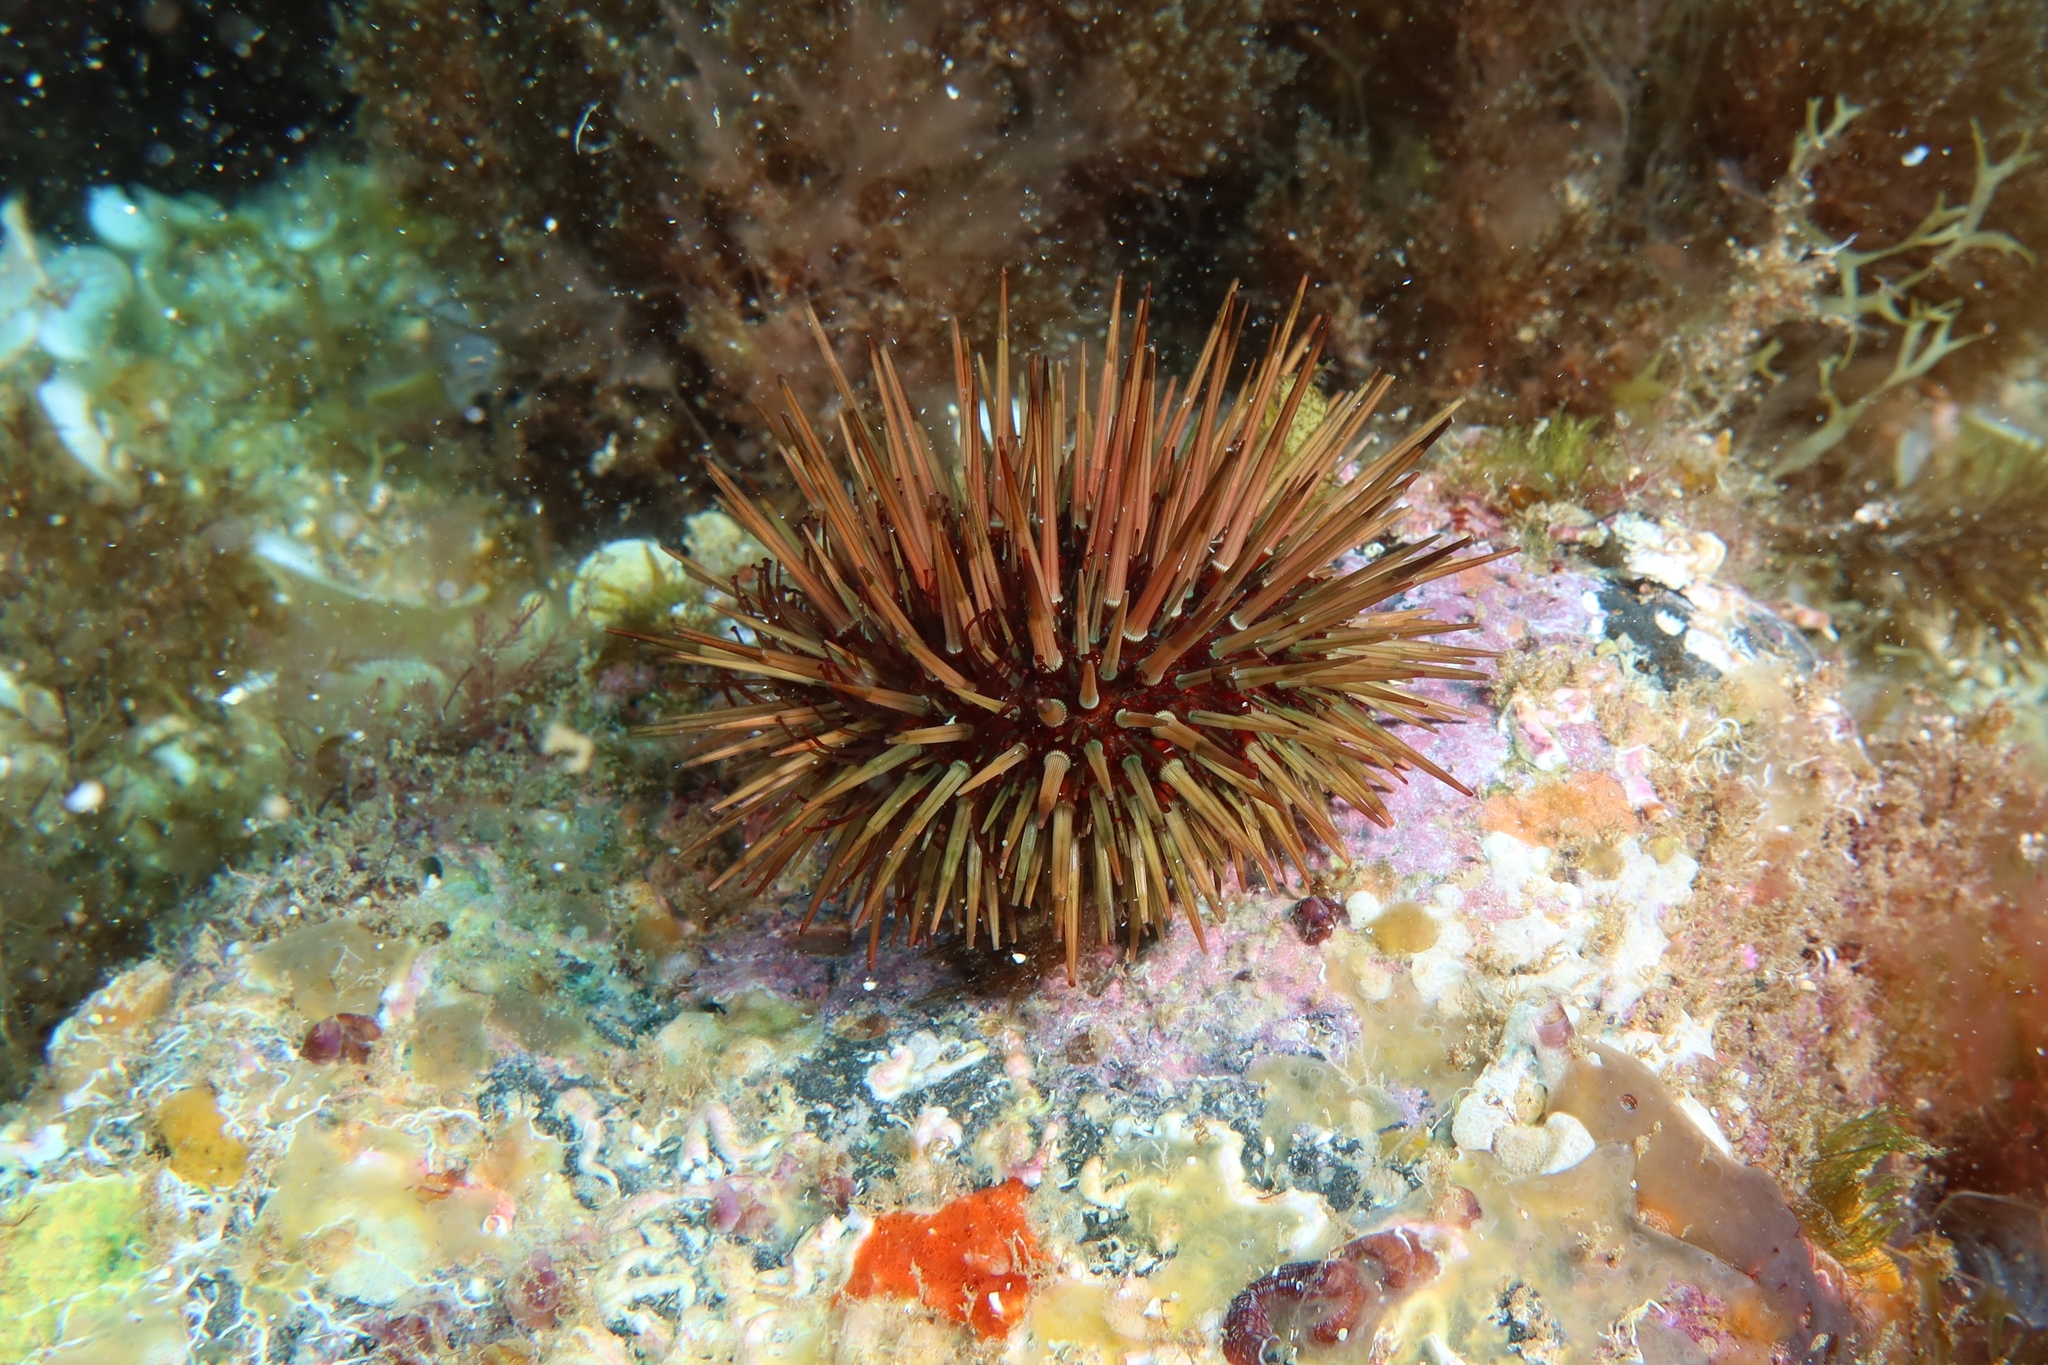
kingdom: Animalia
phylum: Echinodermata
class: Echinoidea
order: Camarodonta
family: Parechinidae
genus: Paracentrotus
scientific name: Paracentrotus lividus
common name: Purple sea urchin
